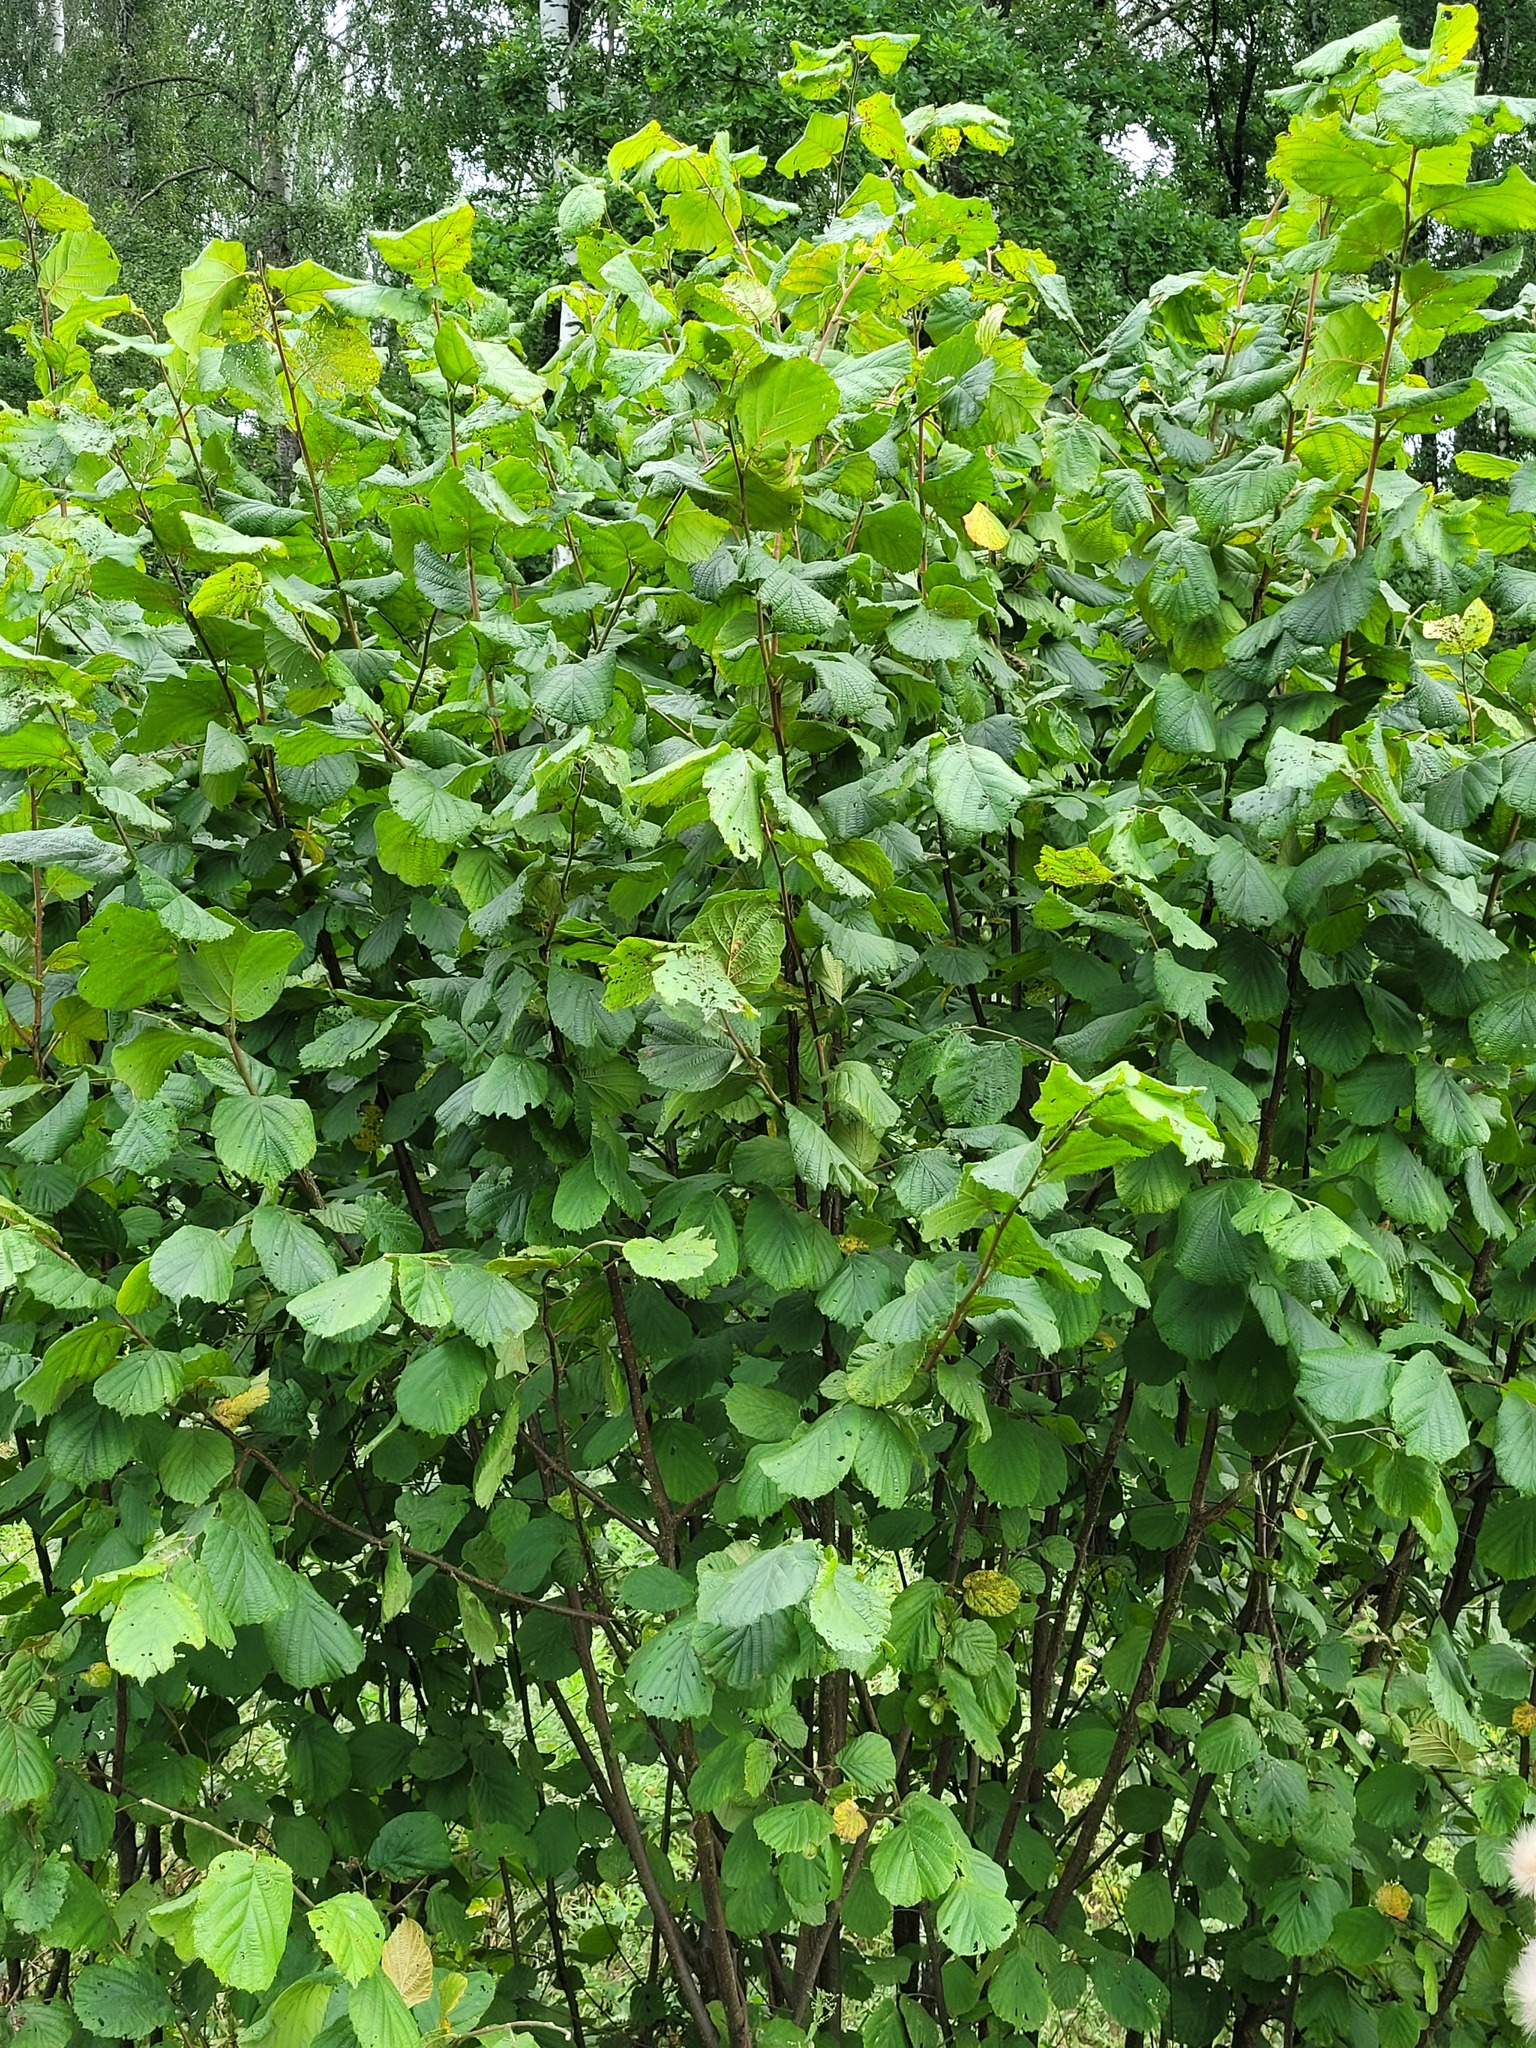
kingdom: Plantae
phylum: Tracheophyta
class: Magnoliopsida
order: Fagales
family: Betulaceae
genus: Corylus
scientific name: Corylus avellana
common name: European hazel
